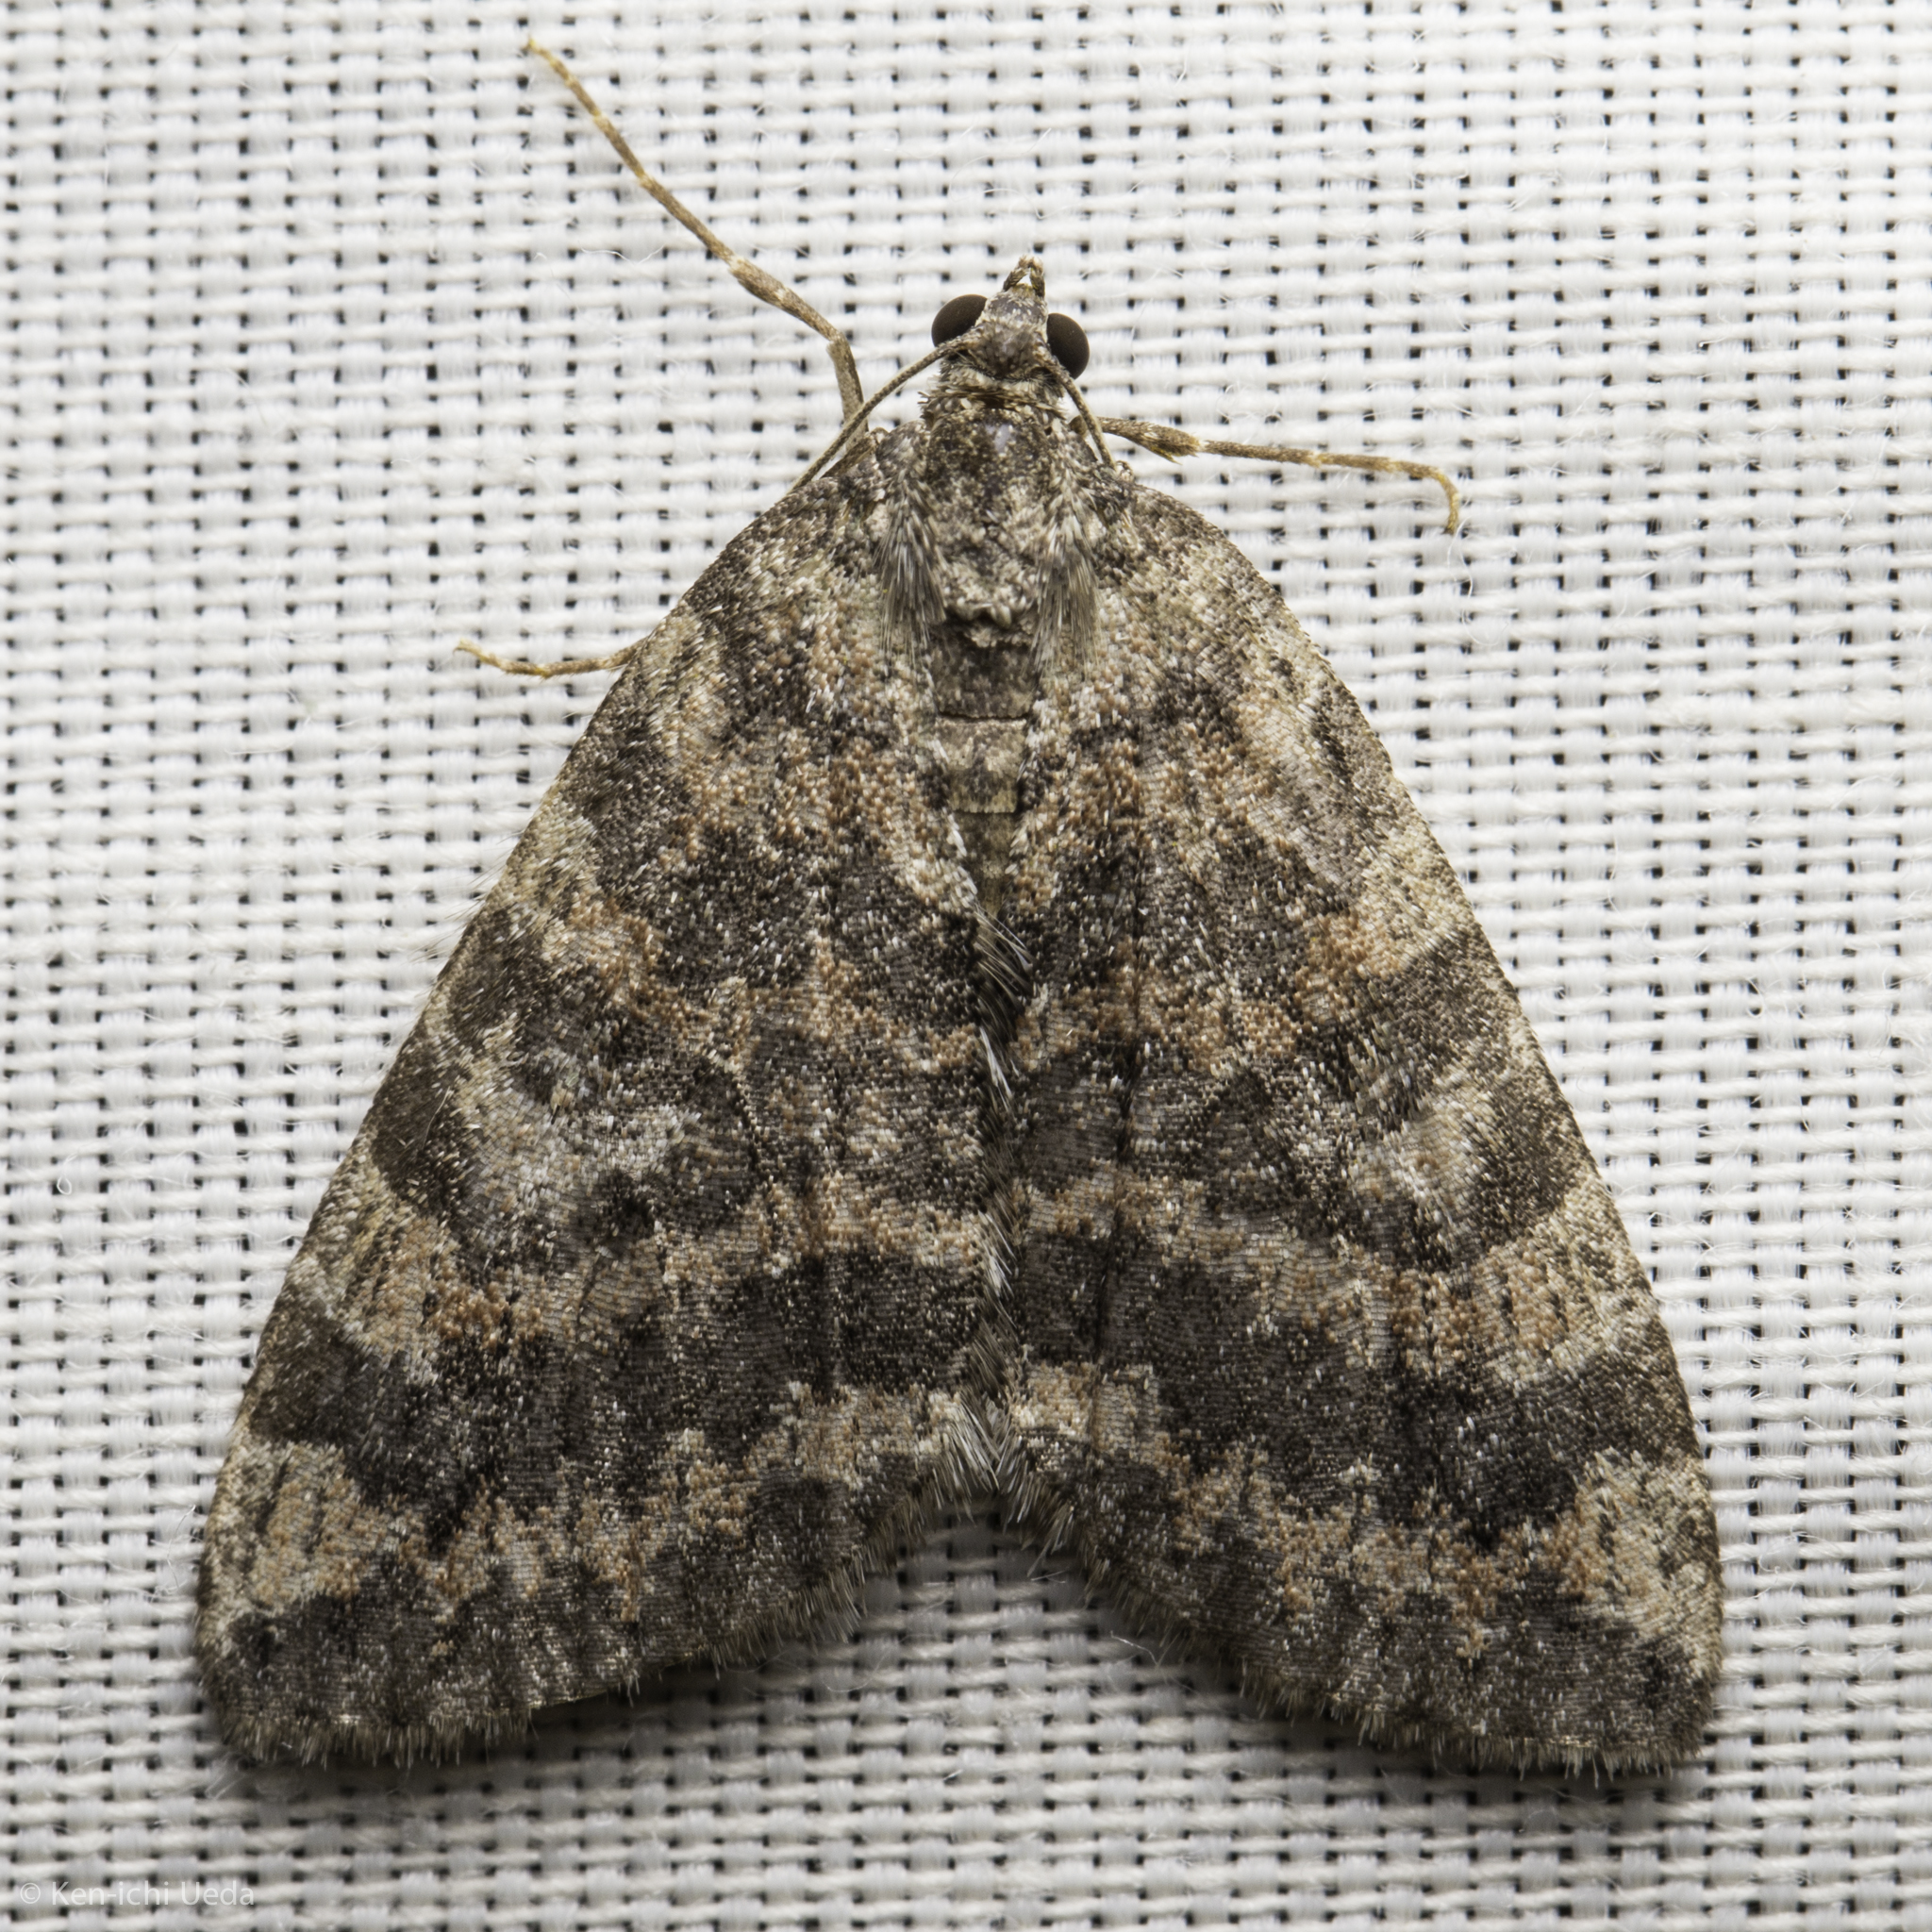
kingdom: Animalia
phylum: Arthropoda
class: Insecta
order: Lepidoptera
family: Geometridae
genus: Hydriomena
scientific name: Hydriomena nubilofasciata
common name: Oak winter highflier moth
